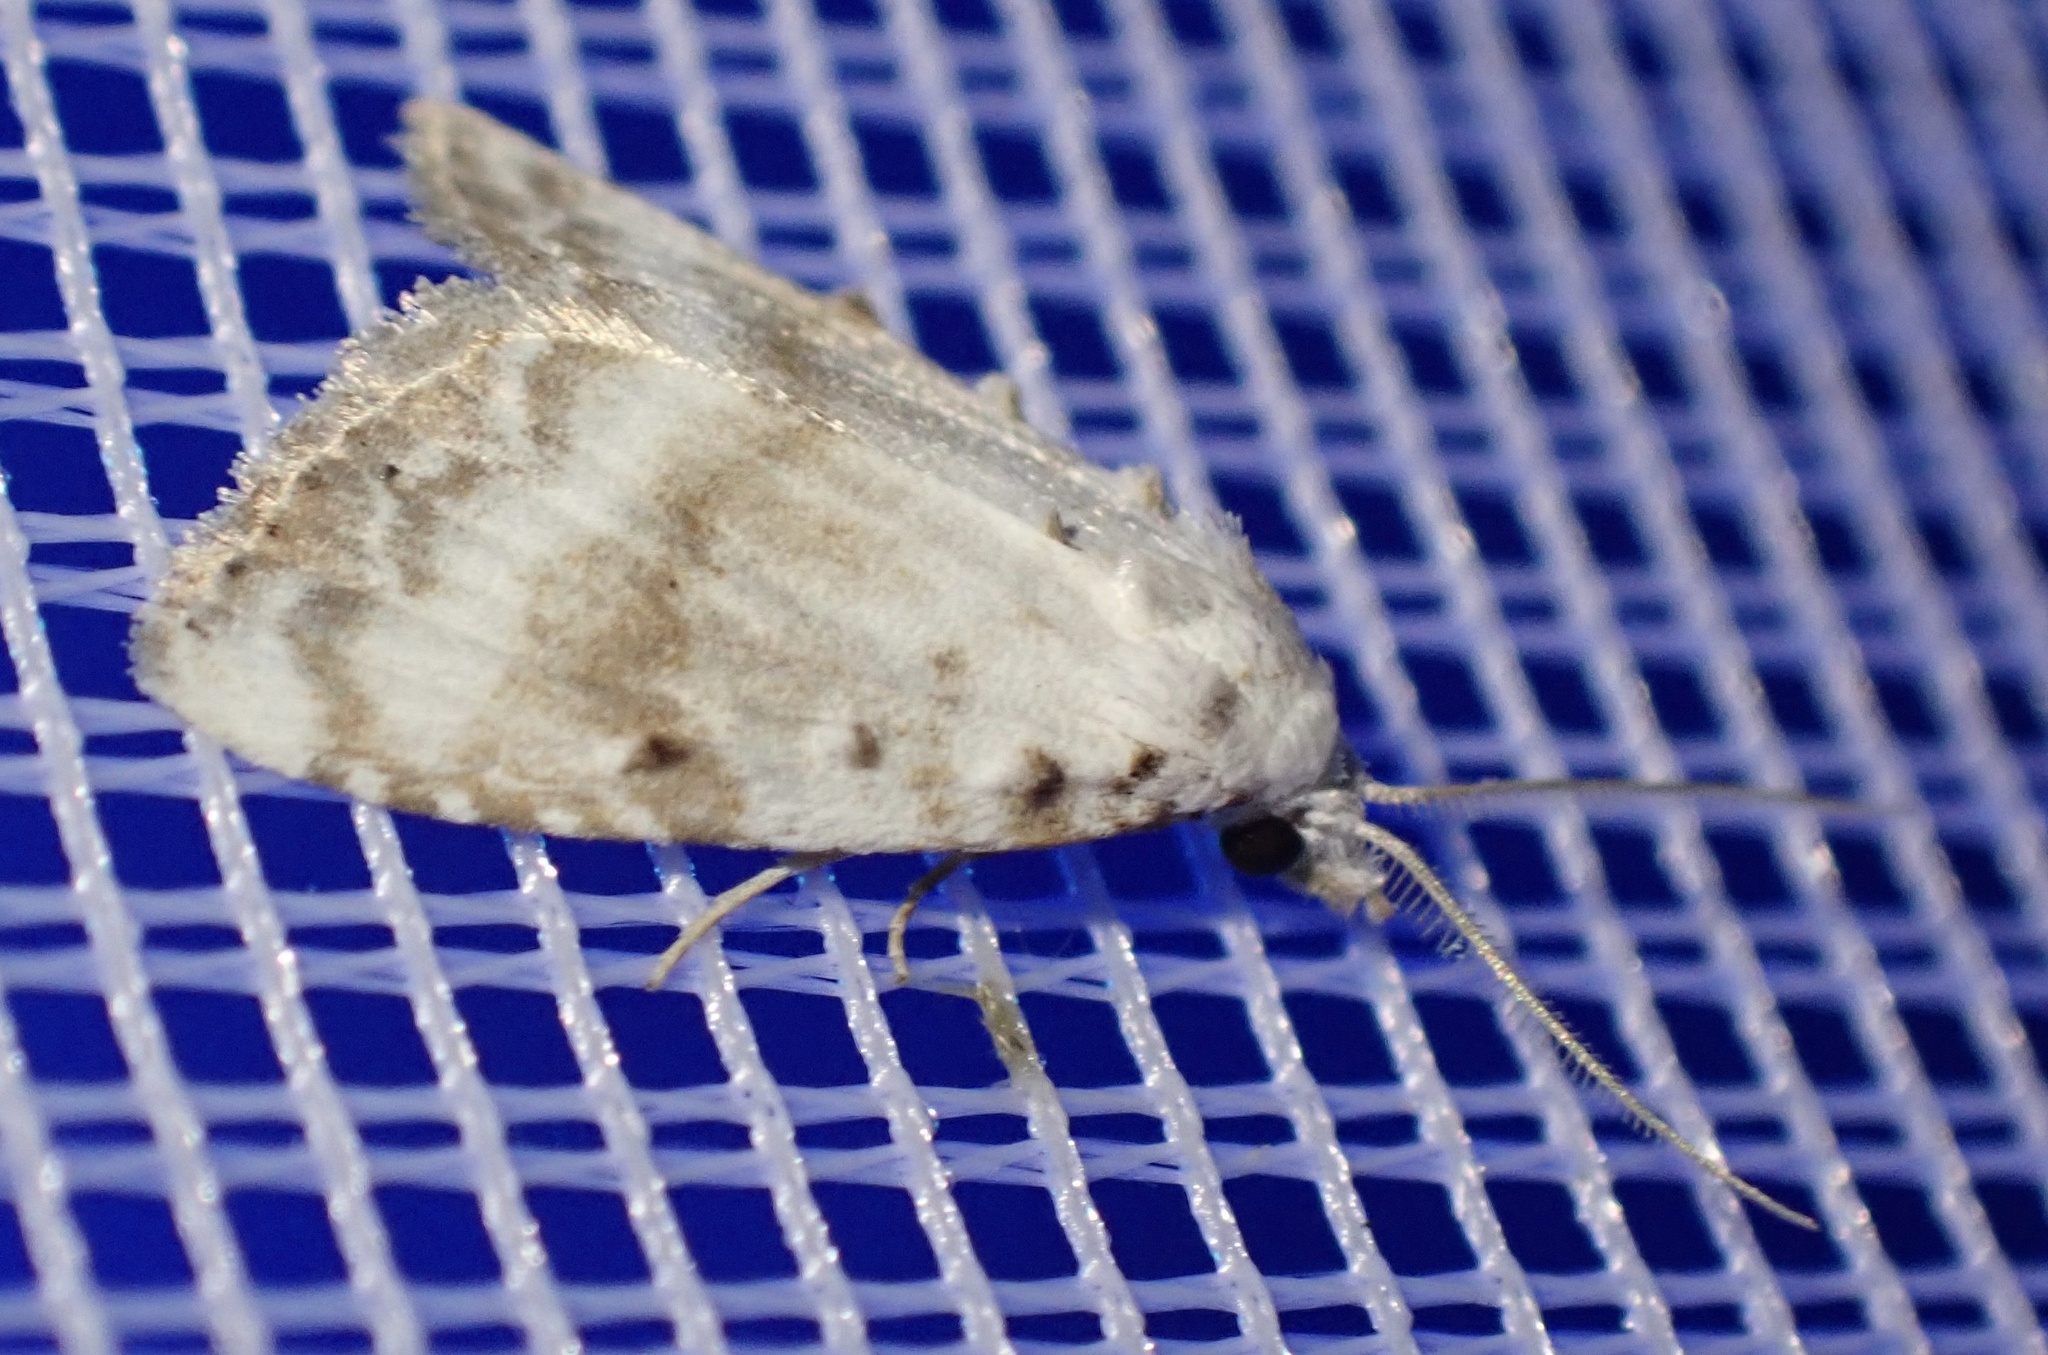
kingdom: Animalia
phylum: Arthropoda
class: Insecta
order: Lepidoptera
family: Nolidae
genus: Meganola
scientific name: Meganola albula
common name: Kent black arches
